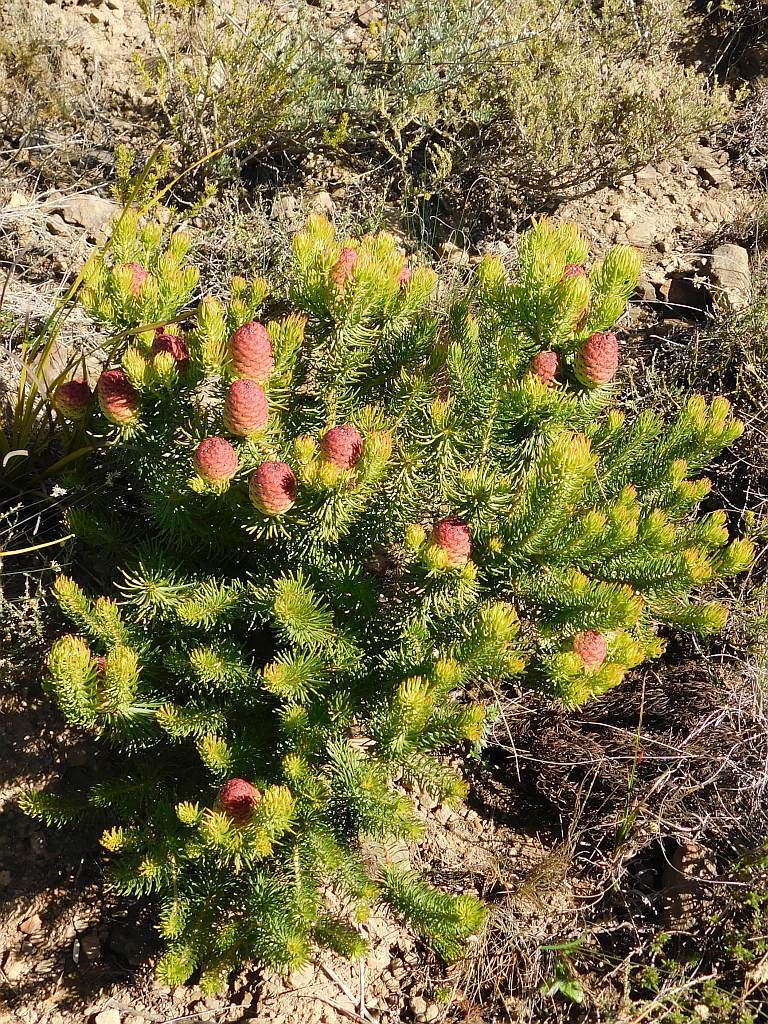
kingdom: Plantae
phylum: Tracheophyta
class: Magnoliopsida
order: Proteales
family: Proteaceae
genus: Leucadendron
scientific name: Leucadendron teretifolium
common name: Needle-leaf conebush
